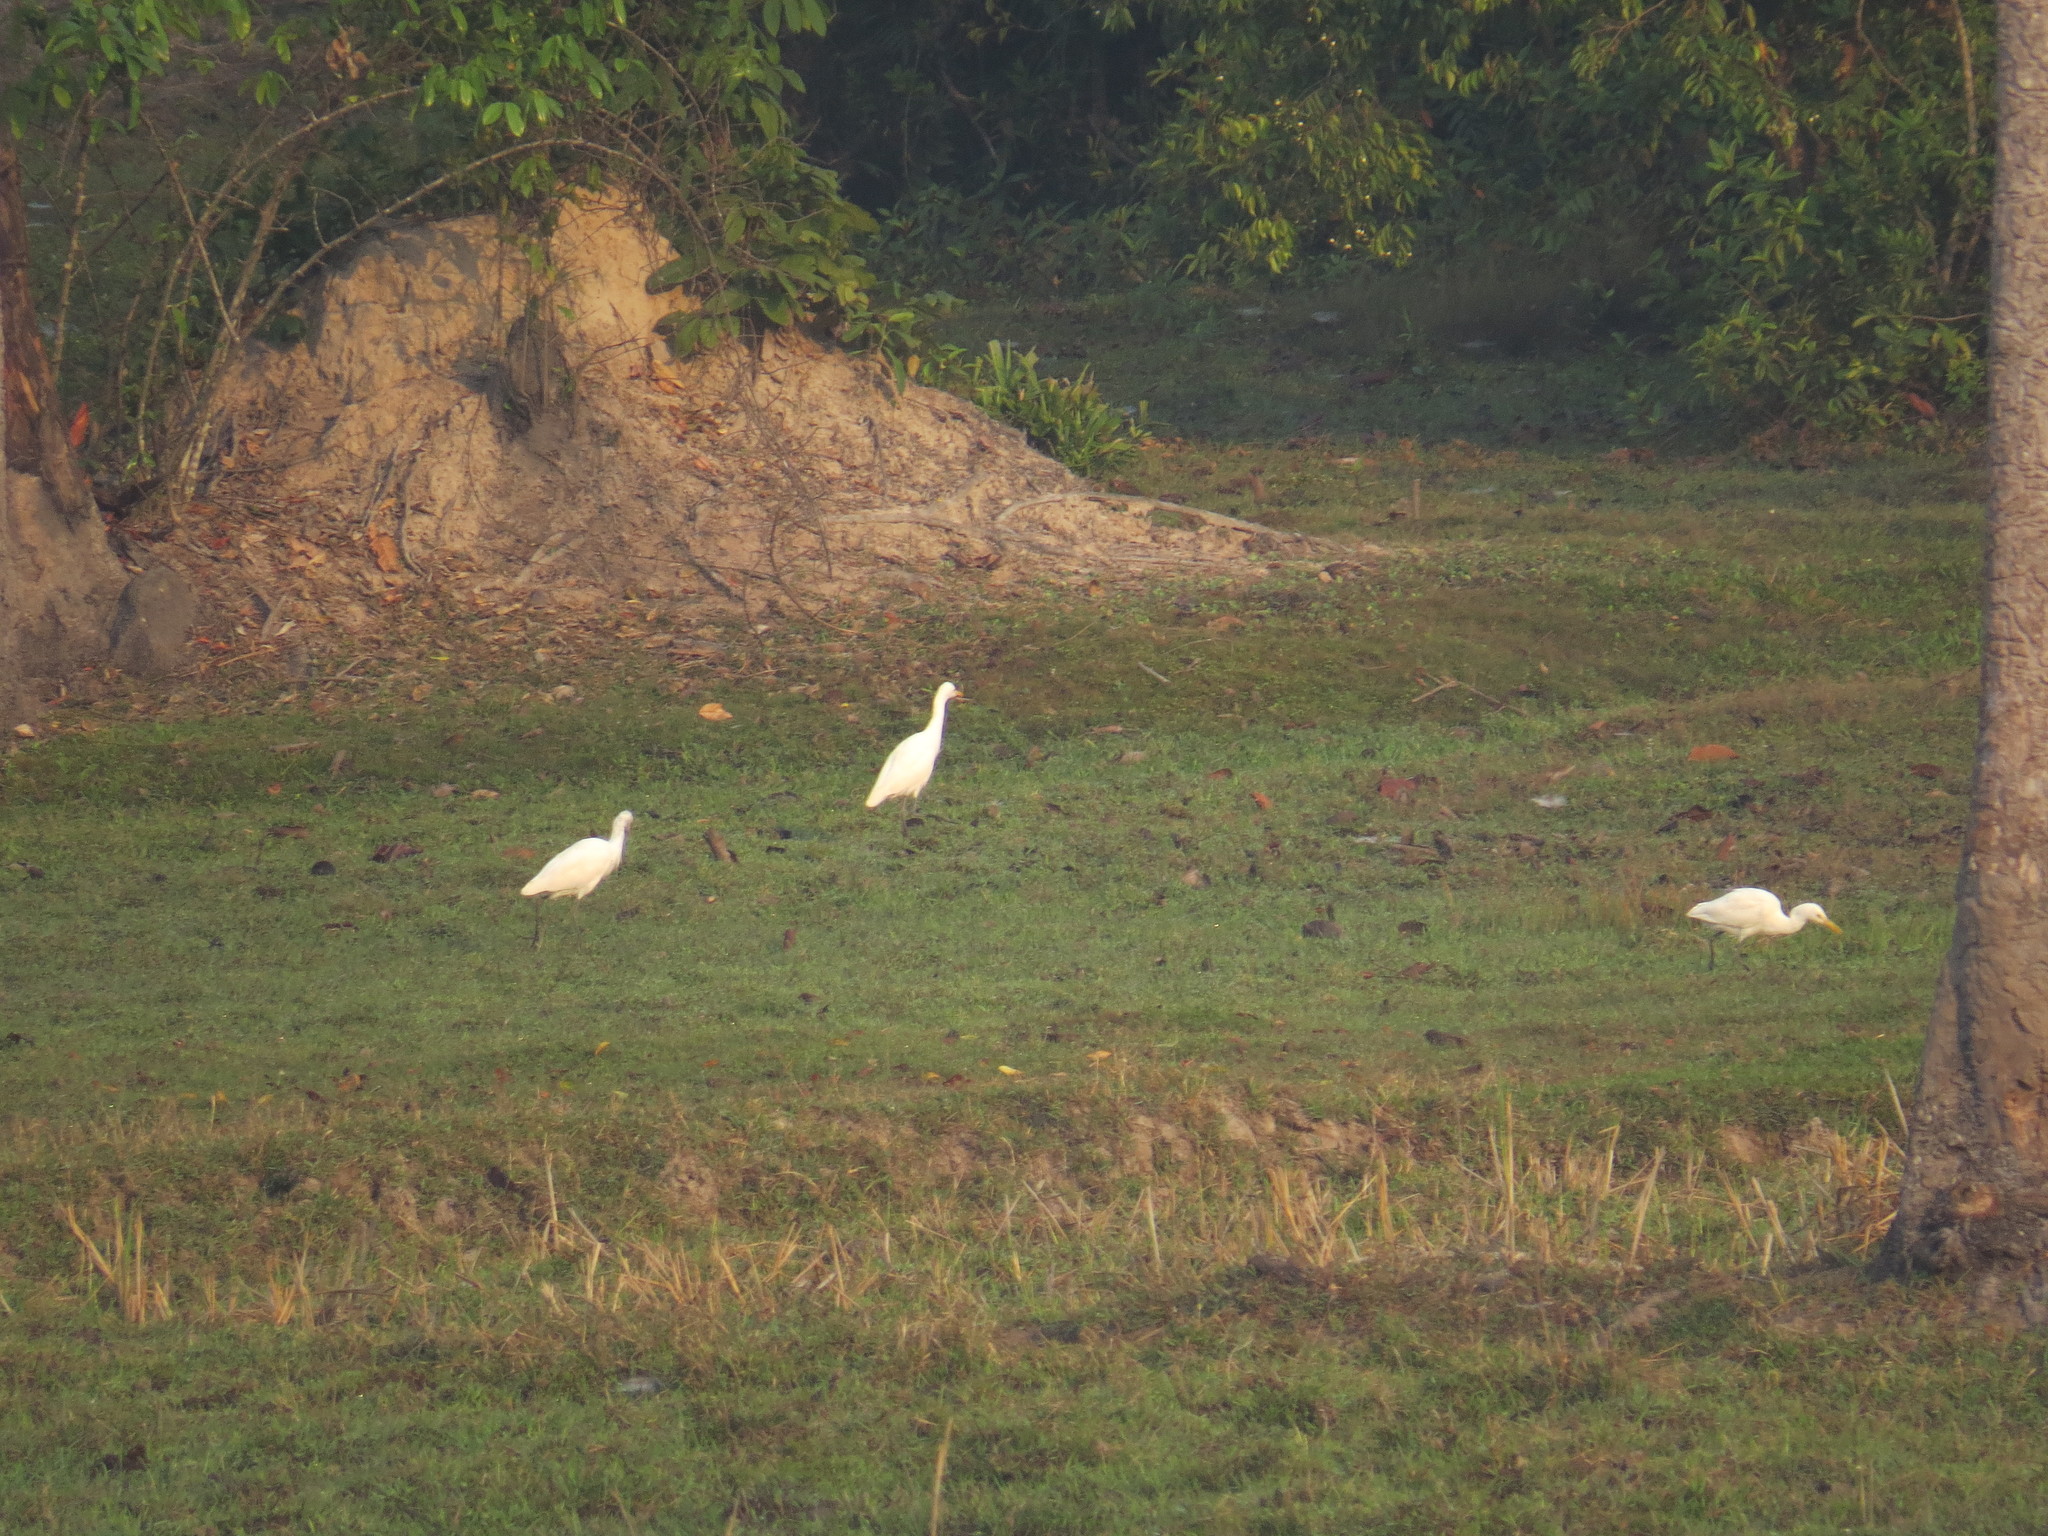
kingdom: Animalia
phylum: Chordata
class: Aves
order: Pelecaniformes
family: Ardeidae
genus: Bubulcus
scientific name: Bubulcus coromandus
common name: Eastern cattle egret
